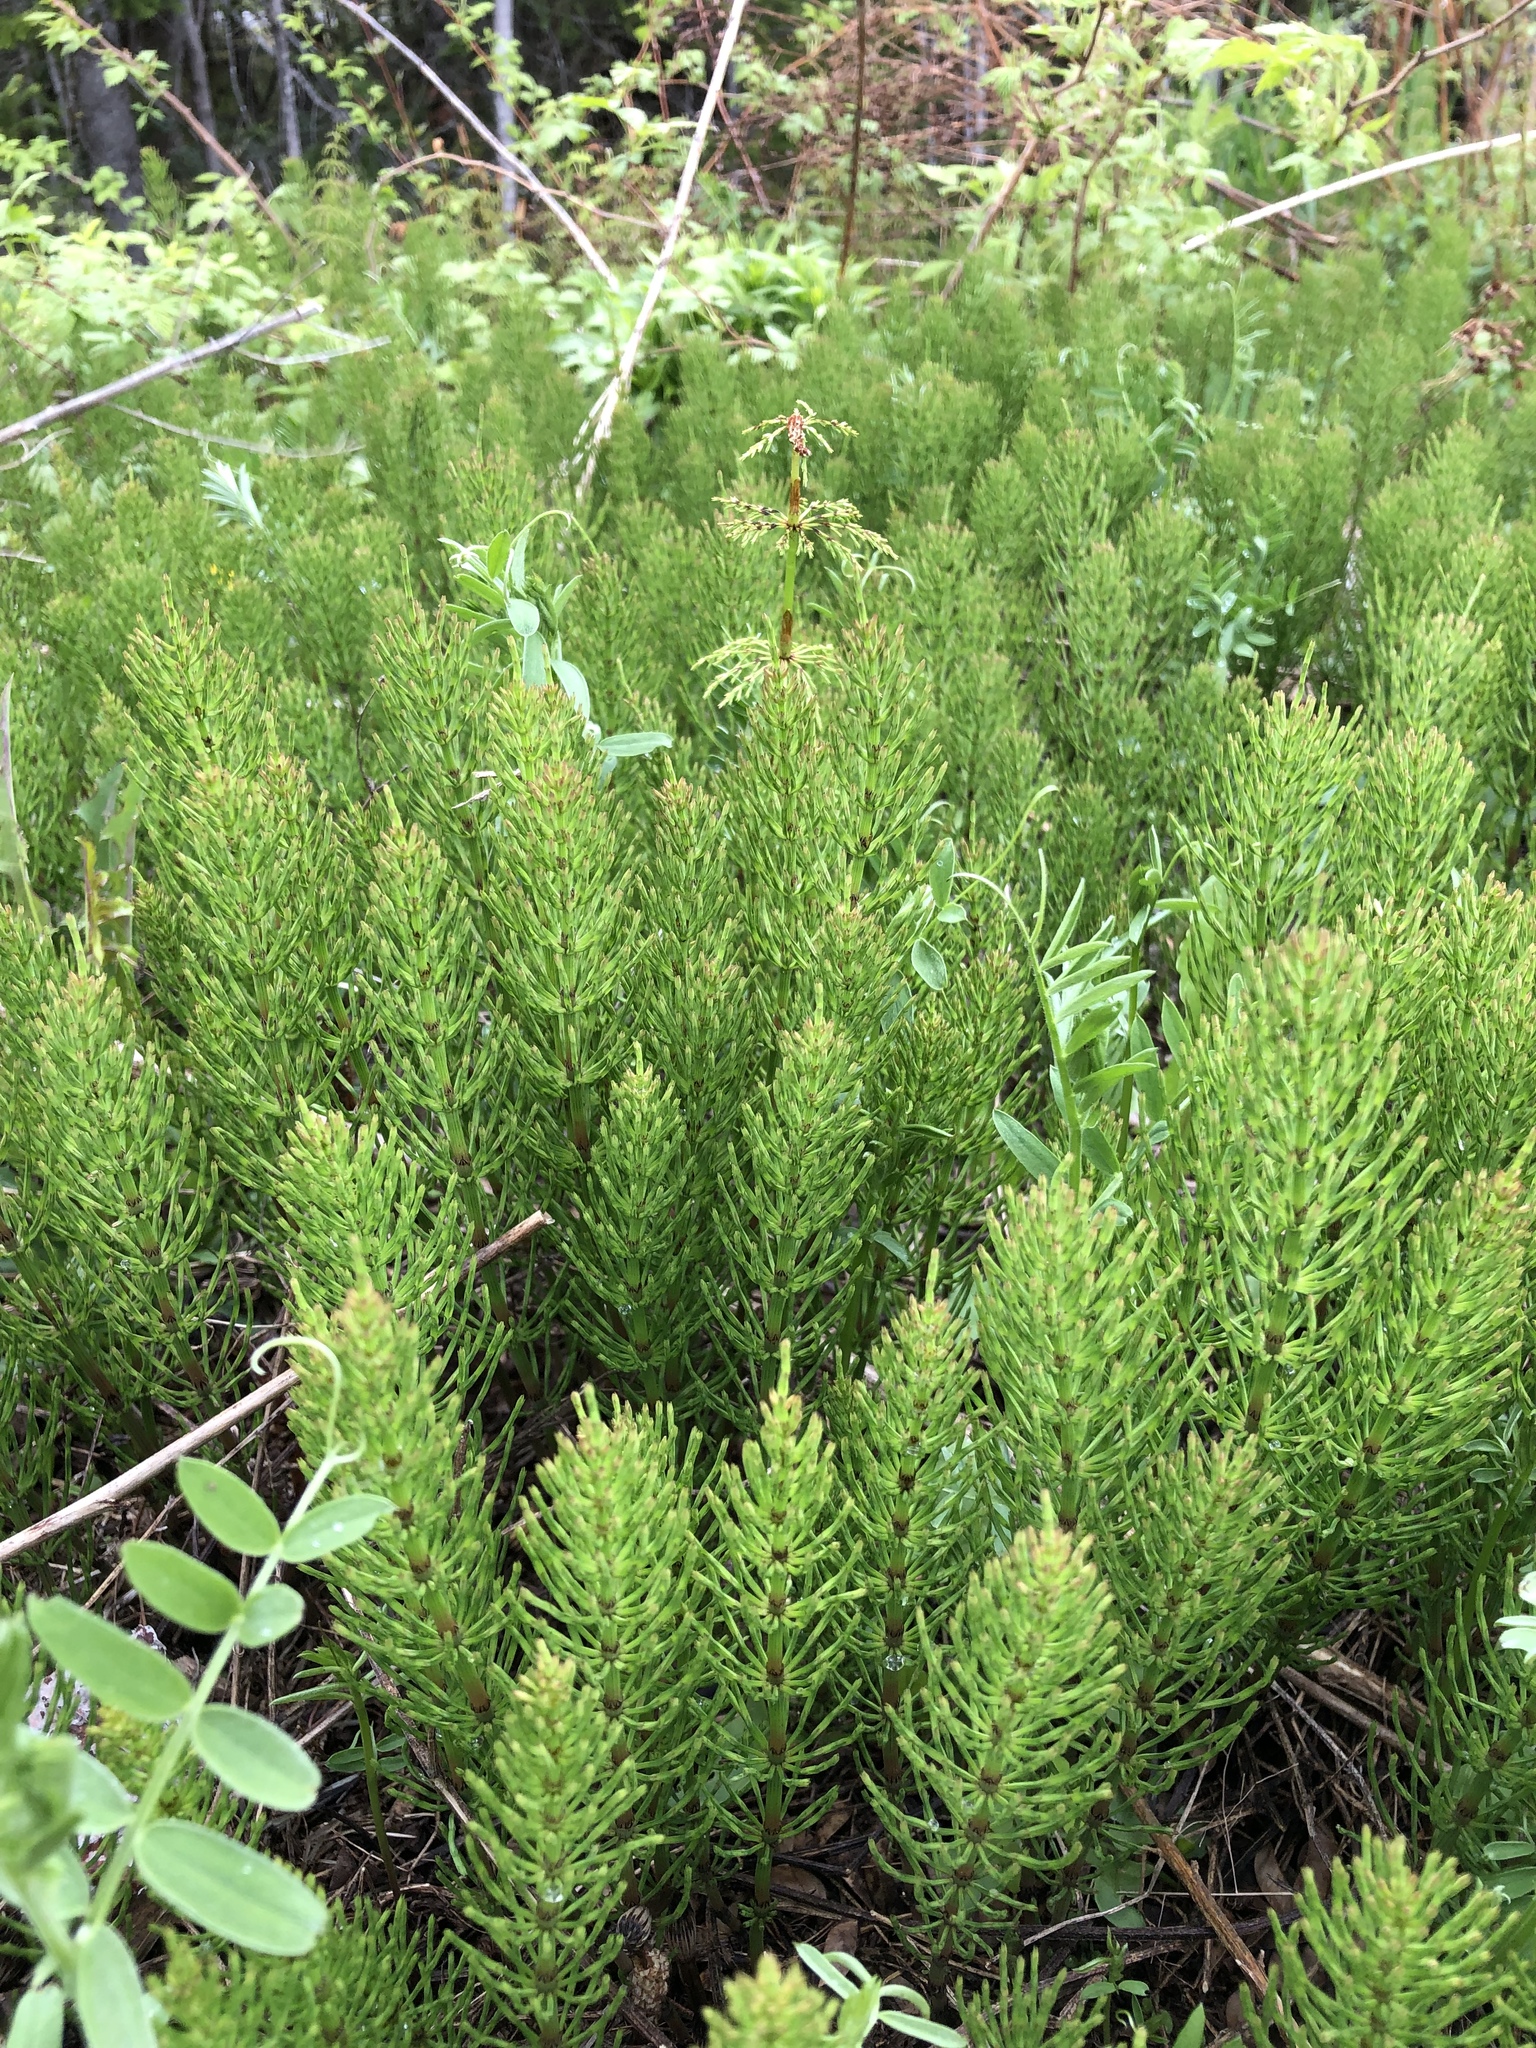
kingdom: Plantae
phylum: Tracheophyta
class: Polypodiopsida
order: Equisetales
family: Equisetaceae
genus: Equisetum
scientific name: Equisetum arvense
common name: Field horsetail
